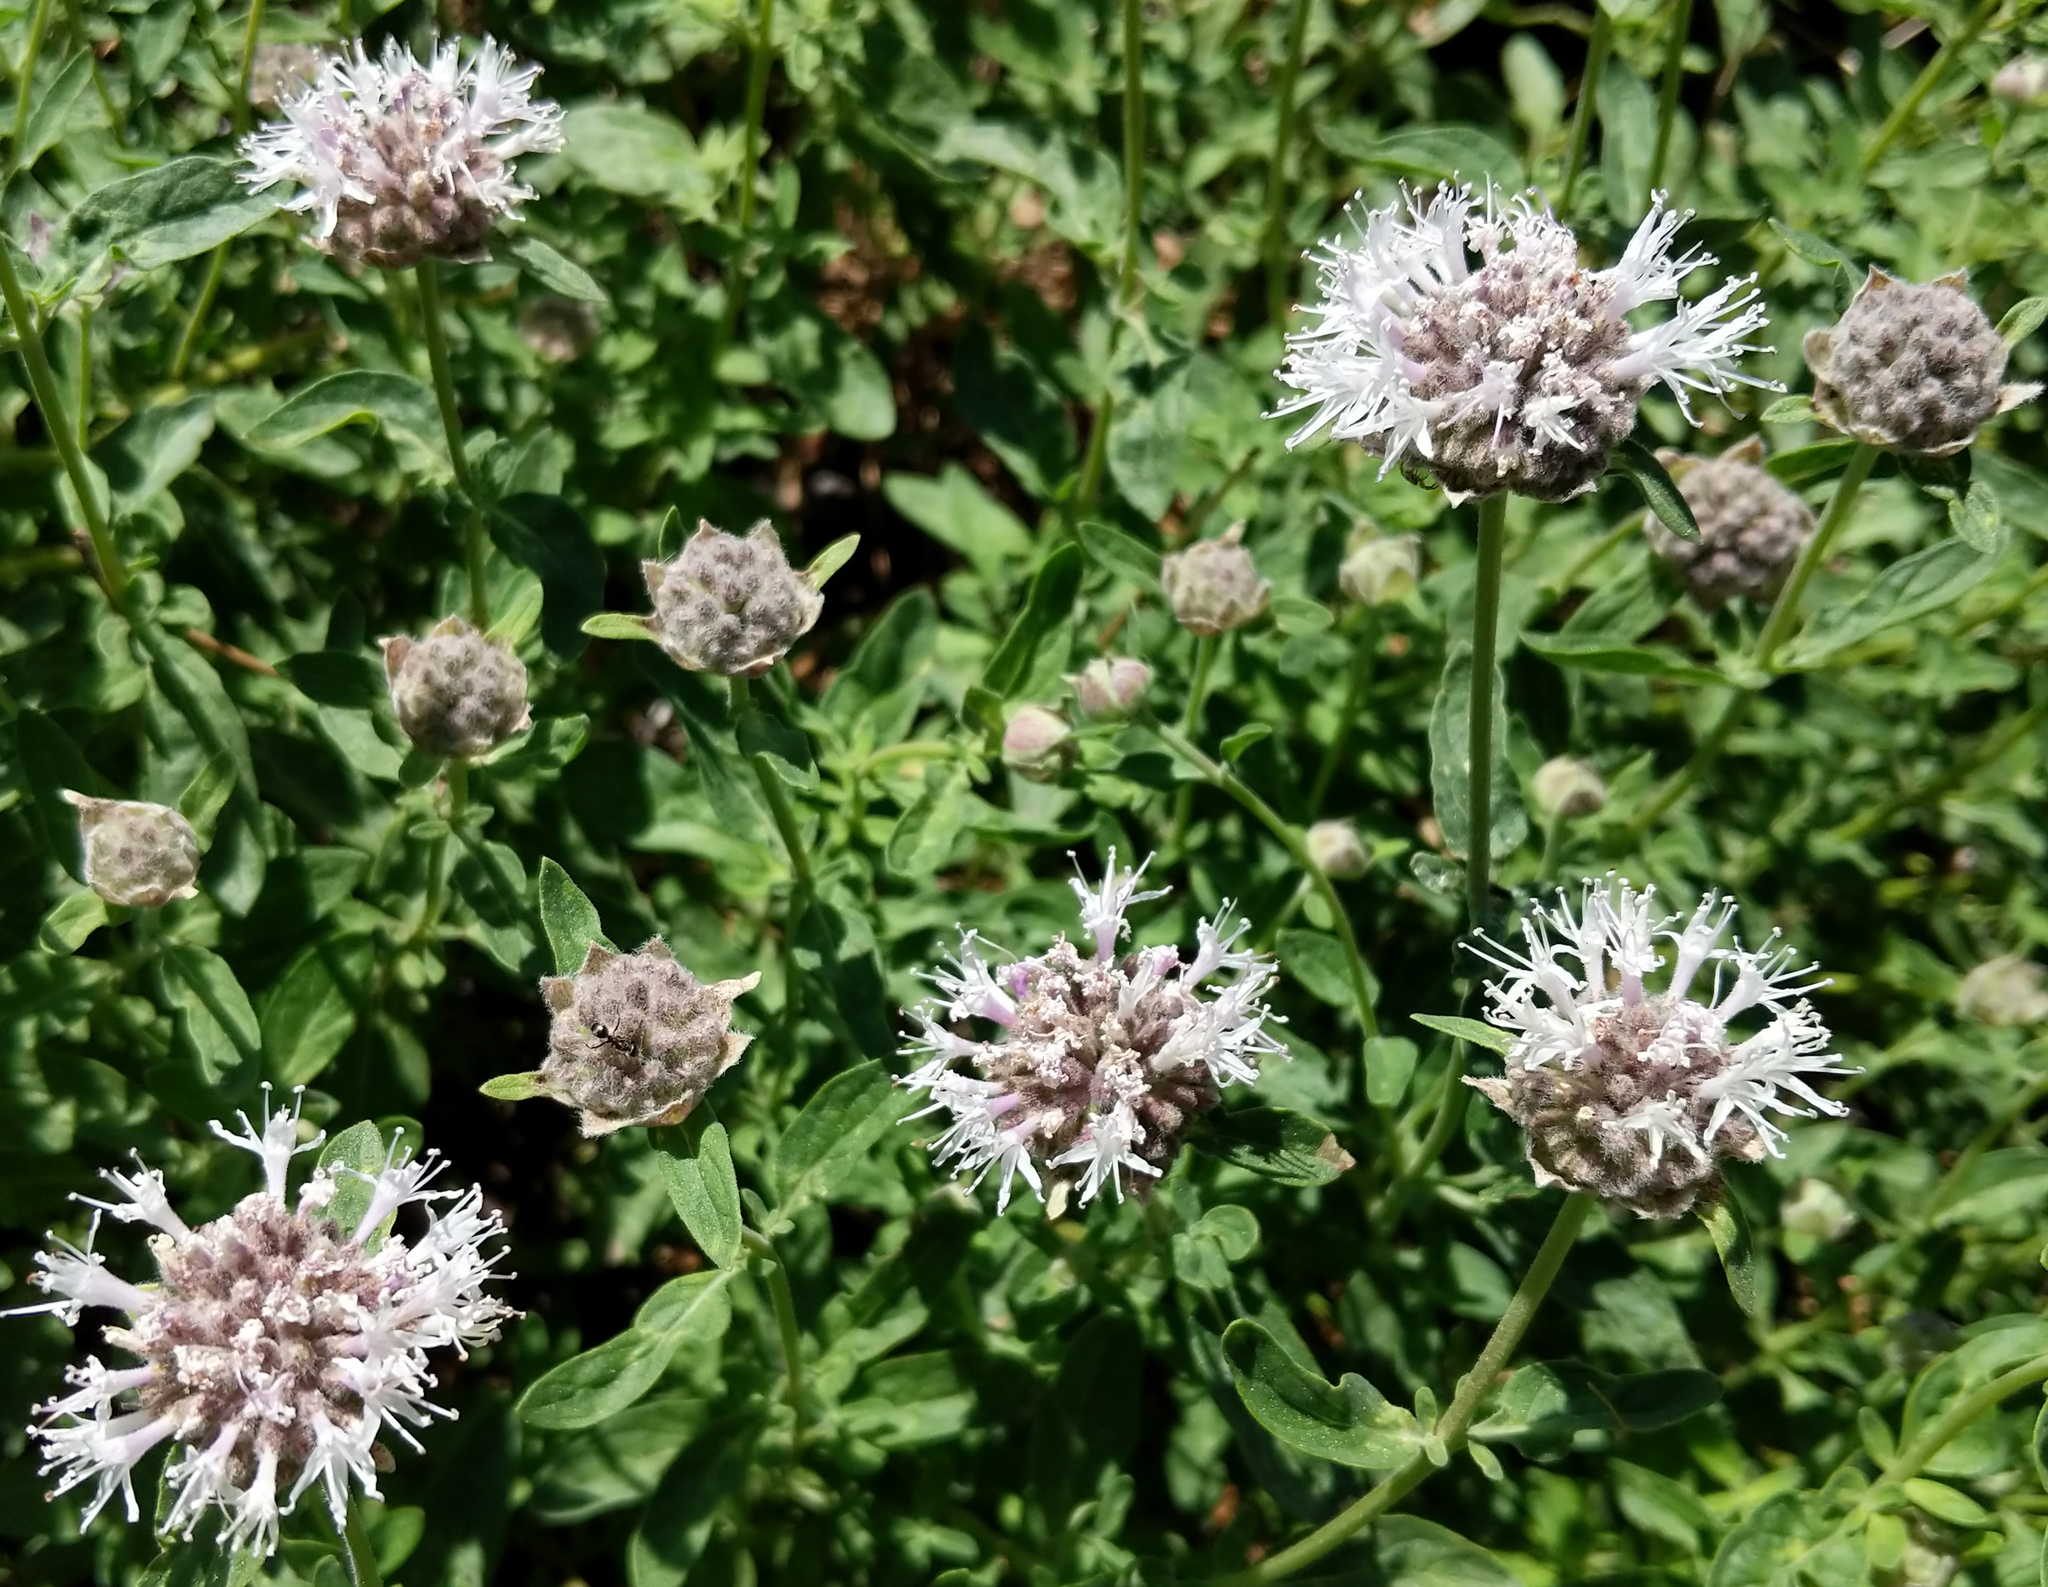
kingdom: Plantae
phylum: Tracheophyta
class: Magnoliopsida
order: Lamiales
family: Lamiaceae
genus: Monardella
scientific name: Monardella odoratissima
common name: Pacific monardella
